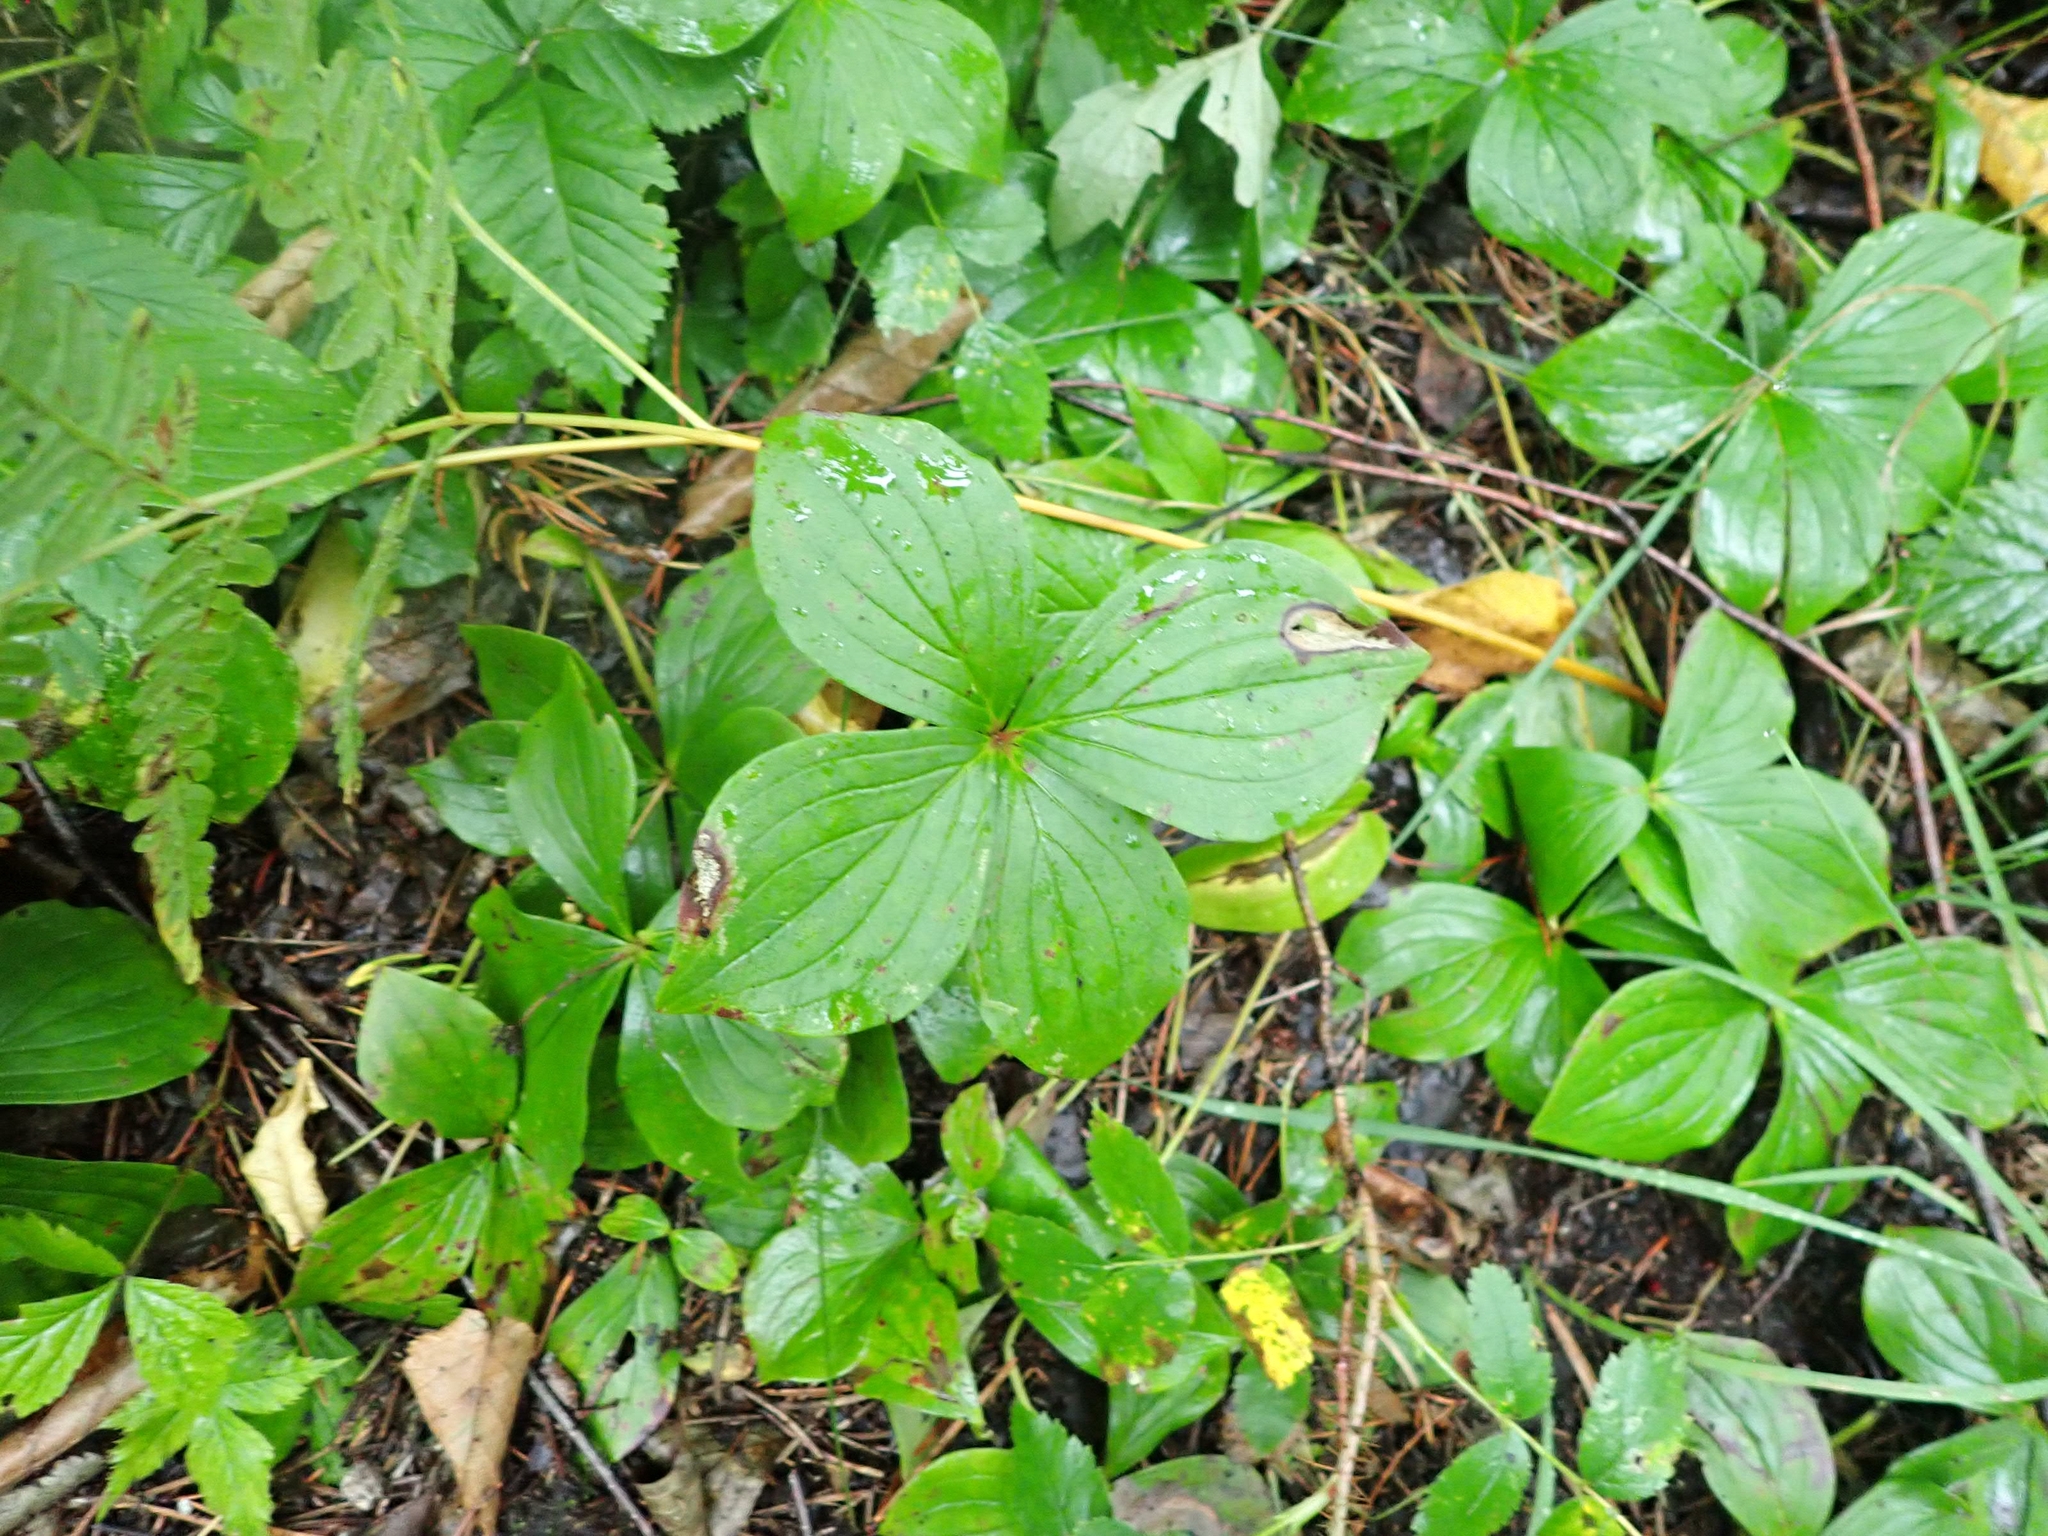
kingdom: Plantae
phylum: Tracheophyta
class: Magnoliopsida
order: Cornales
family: Cornaceae
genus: Cornus
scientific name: Cornus canadensis
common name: Creeping dogwood
